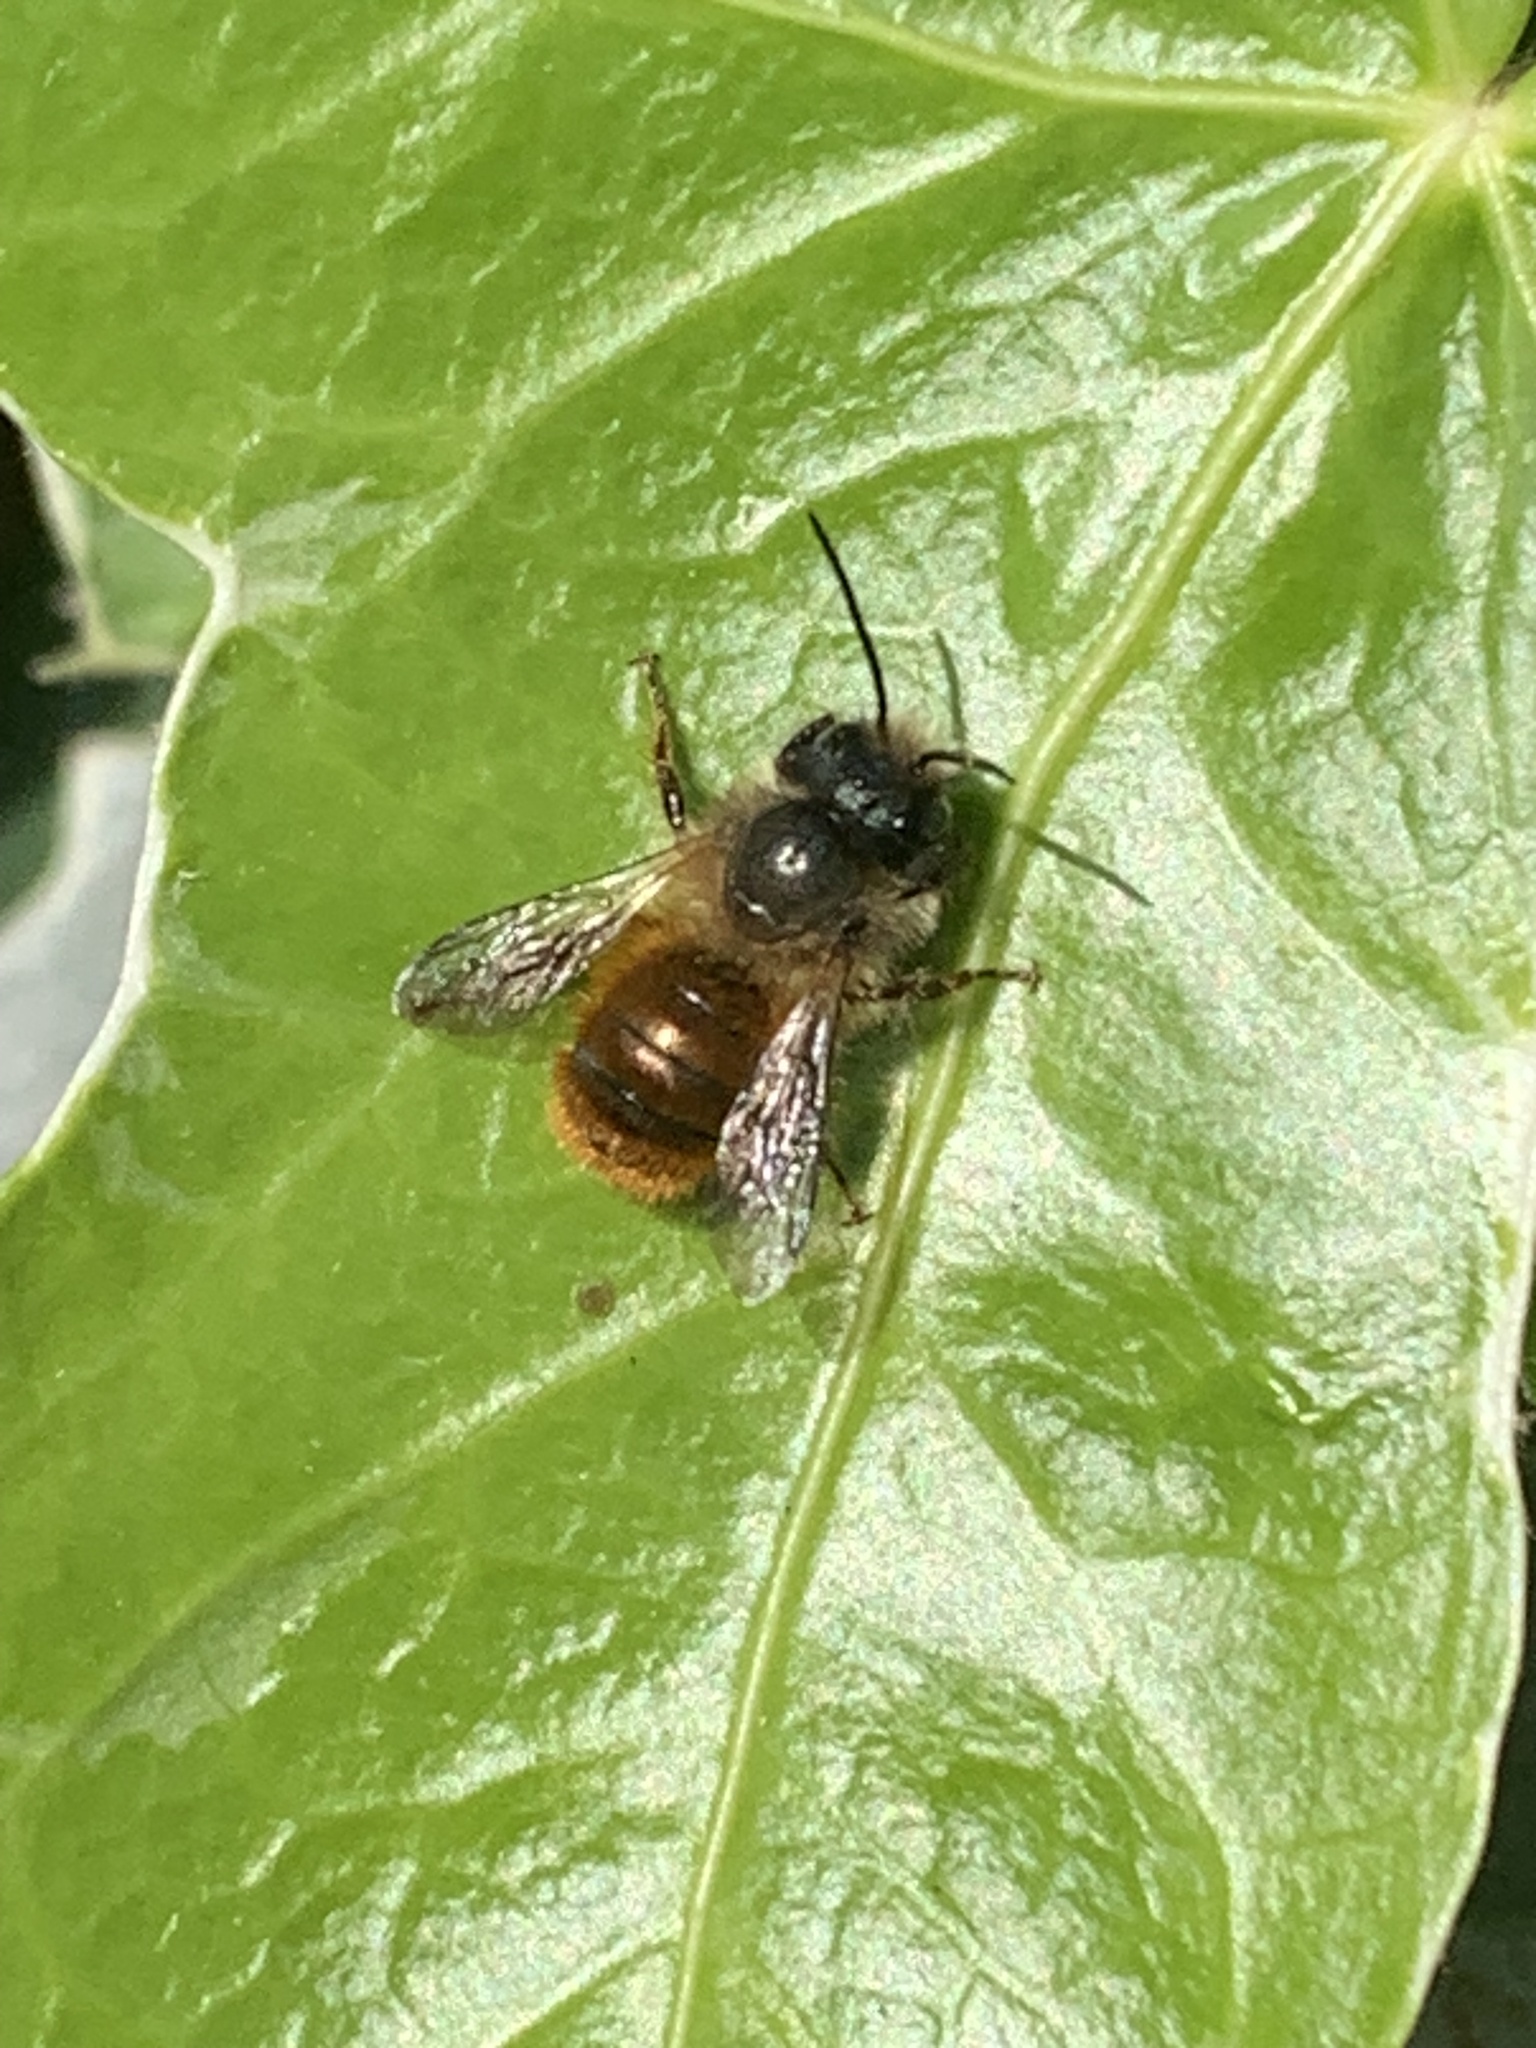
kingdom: Animalia
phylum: Arthropoda
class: Insecta
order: Hymenoptera
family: Megachilidae
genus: Osmia
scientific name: Osmia bicornis
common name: Red mason bee
